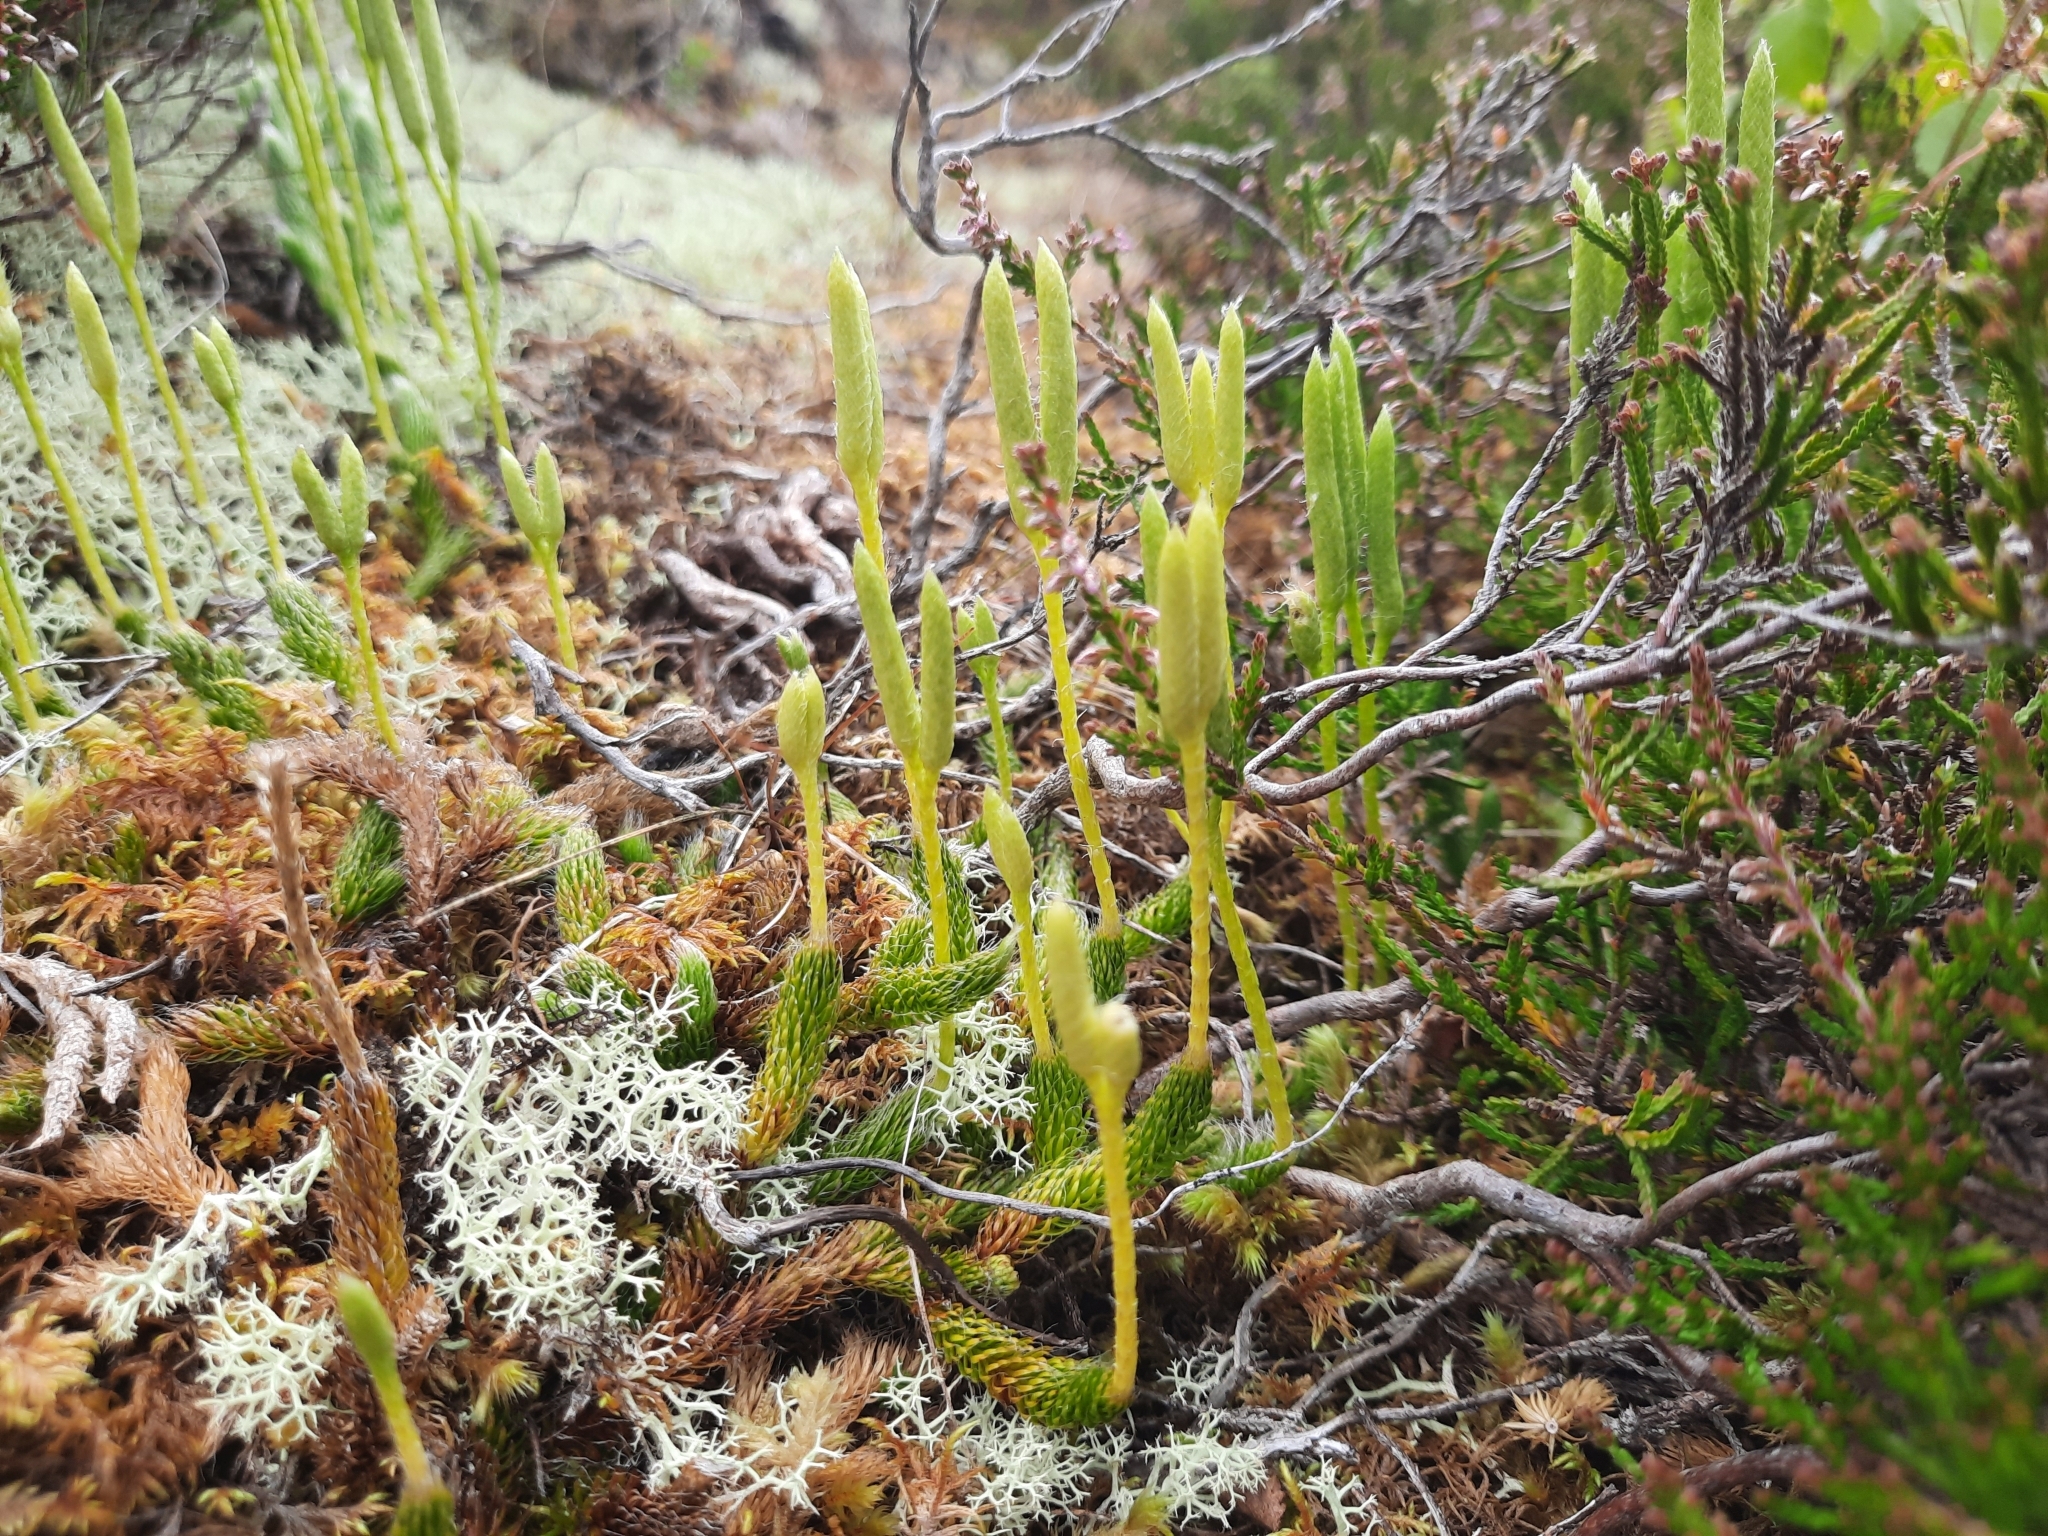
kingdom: Plantae
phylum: Tracheophyta
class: Lycopodiopsida
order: Lycopodiales
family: Lycopodiaceae
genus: Lycopodium
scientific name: Lycopodium clavatum
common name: Stag's-horn clubmoss
